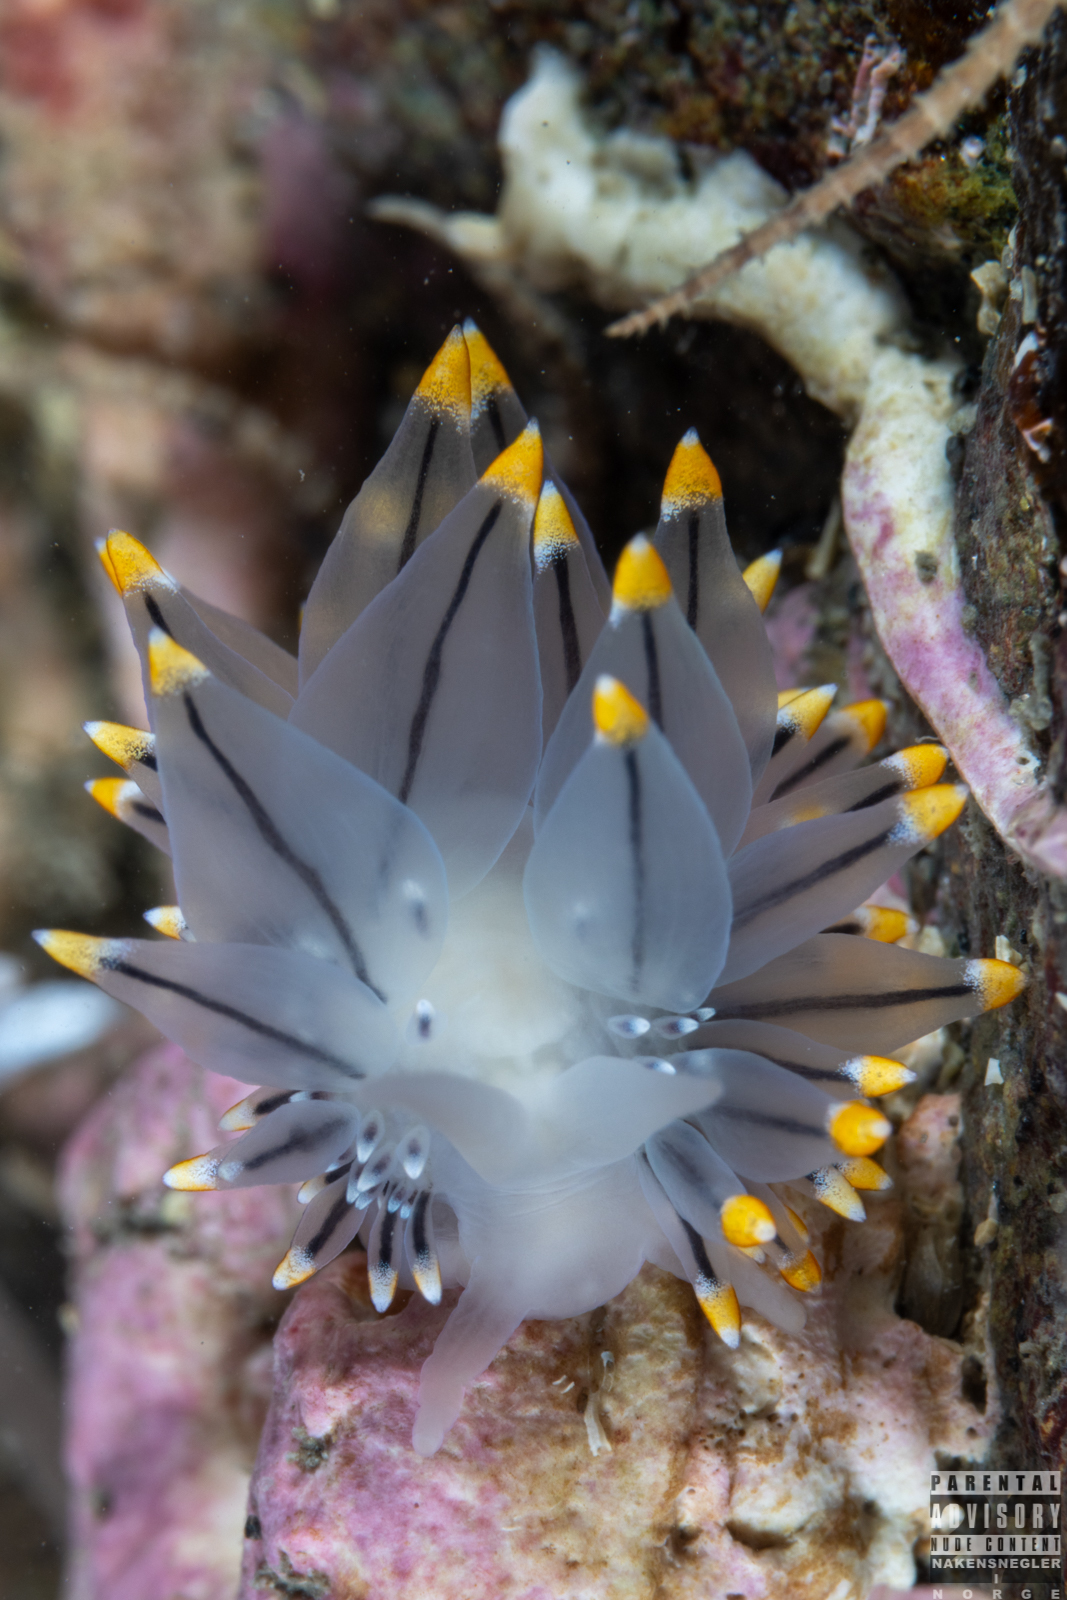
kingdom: Animalia
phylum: Mollusca
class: Gastropoda
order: Nudibranchia
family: Eubranchidae
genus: Eubranchus
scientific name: Eubranchus tricolor
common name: Painted balloon aeolis
